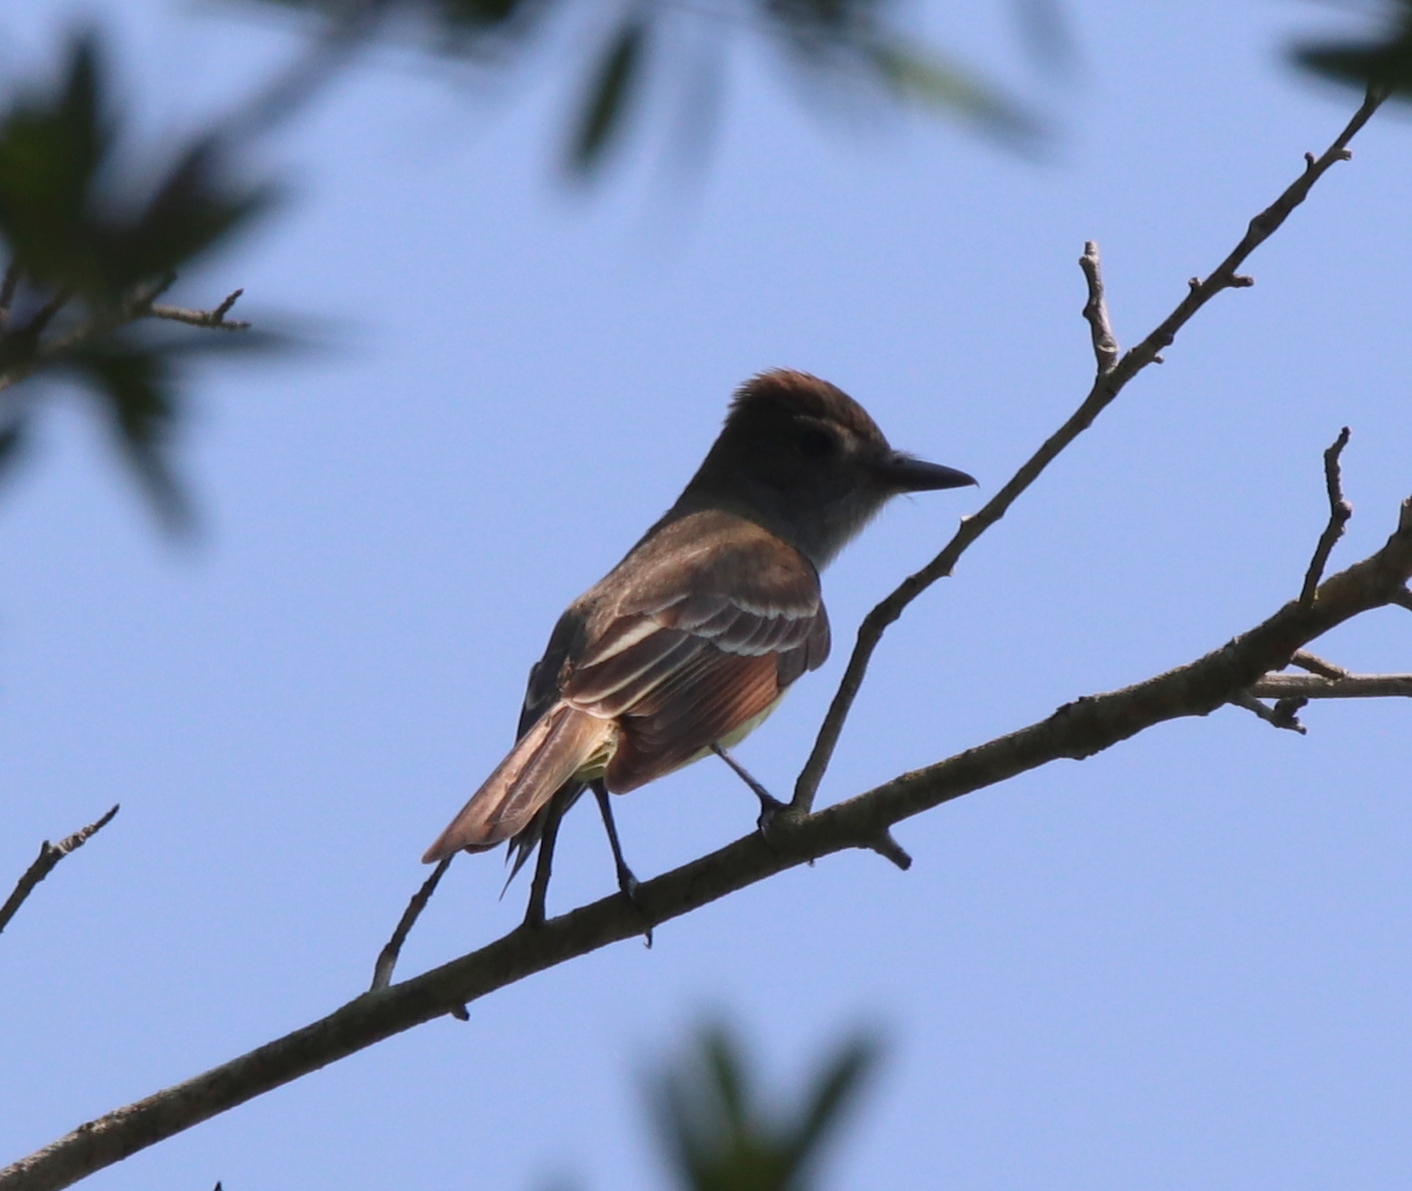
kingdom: Animalia
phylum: Chordata
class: Aves
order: Passeriformes
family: Tyrannidae
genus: Myiarchus
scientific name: Myiarchus crinitus
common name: Great crested flycatcher
